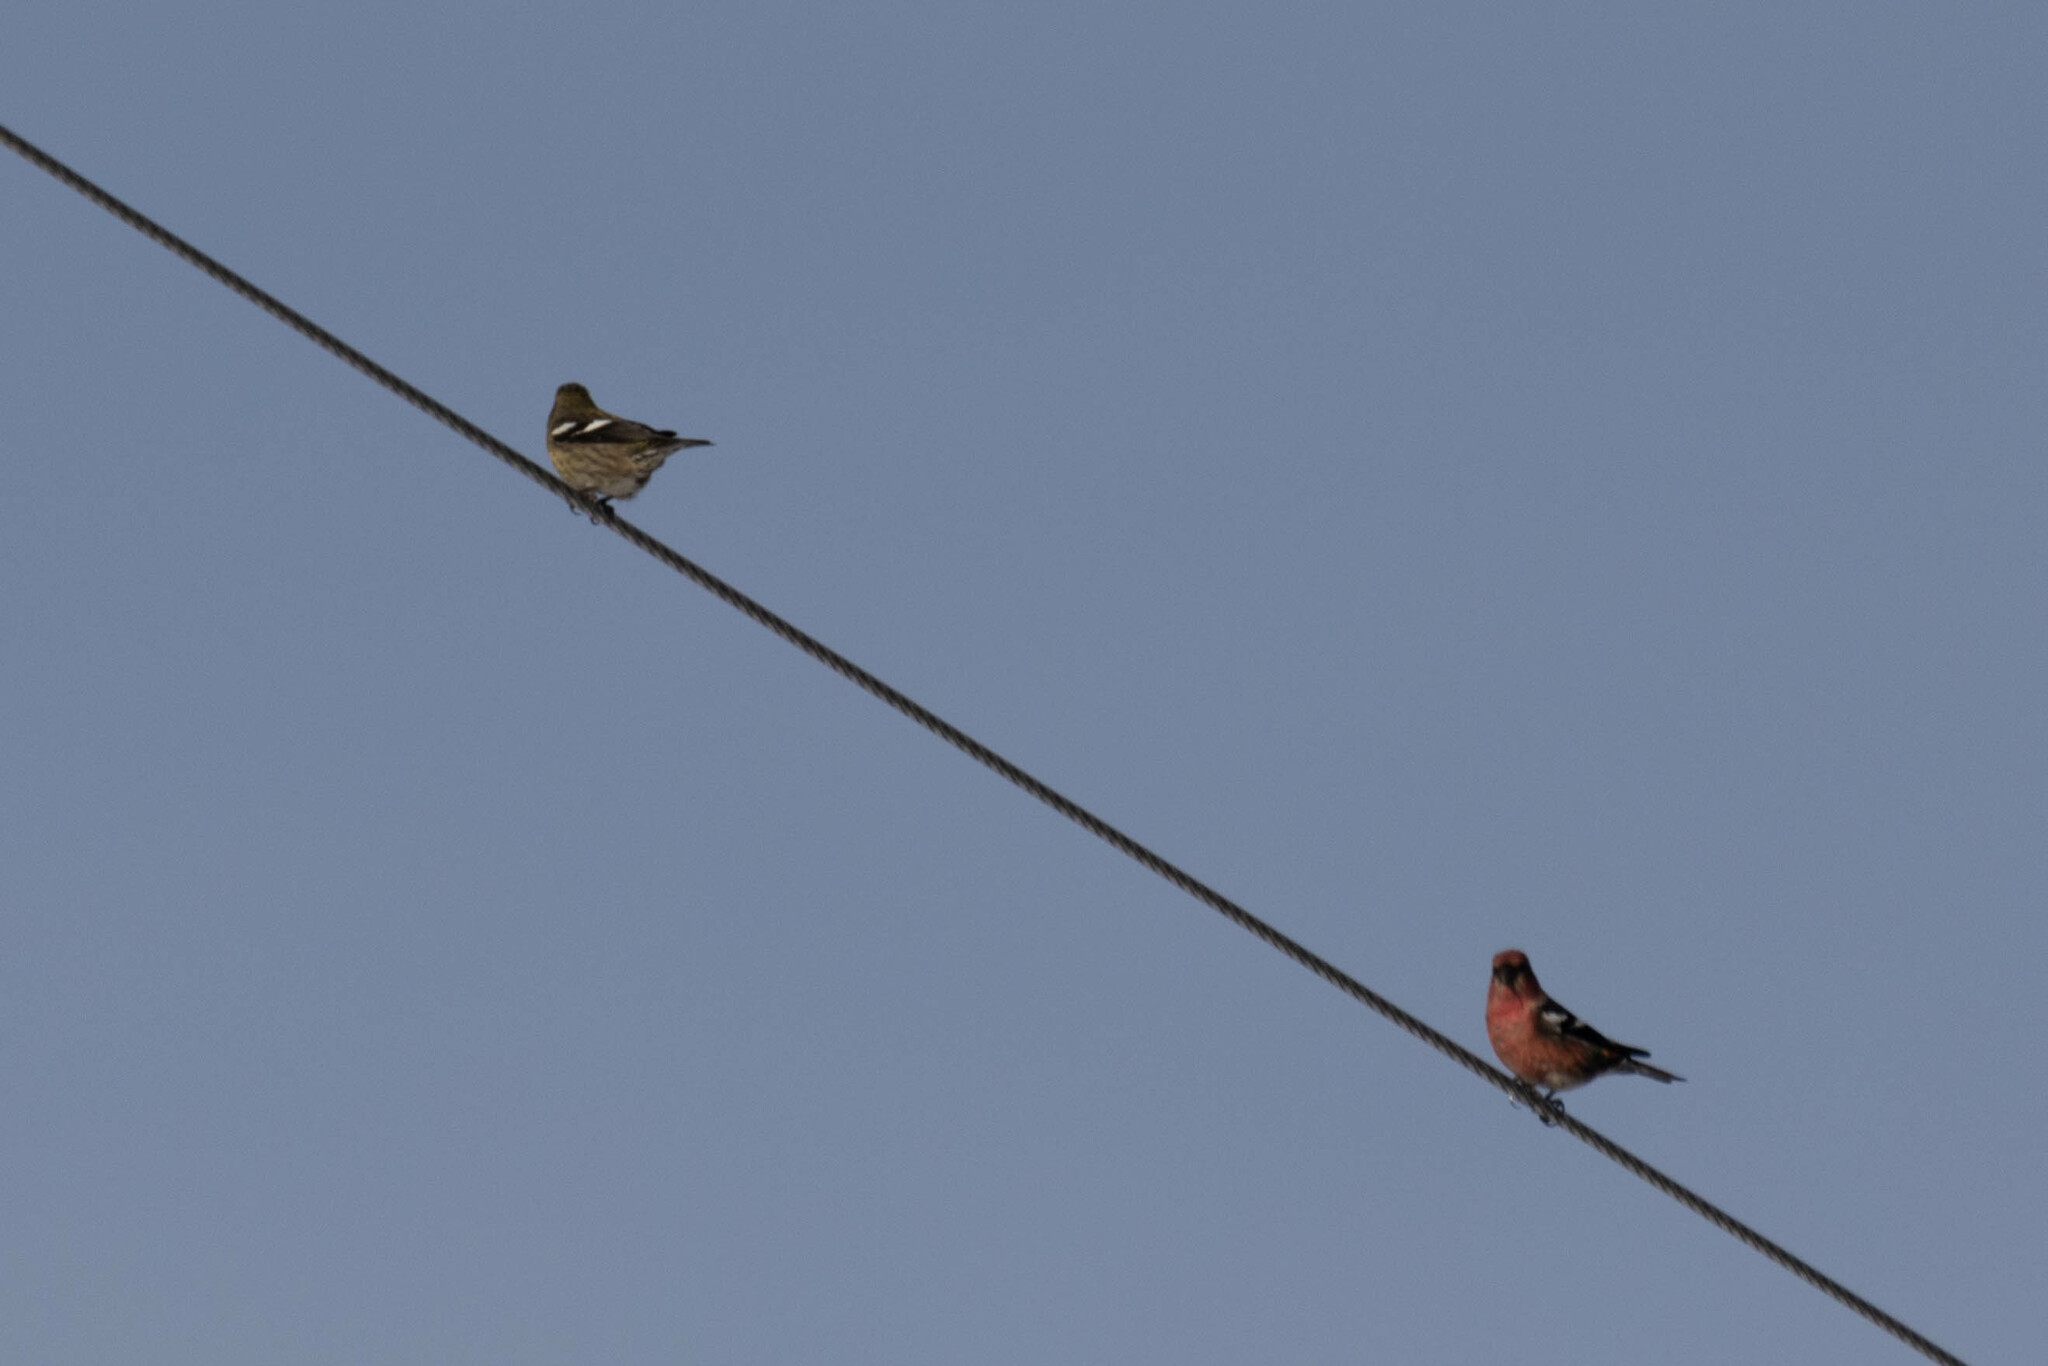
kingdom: Animalia
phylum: Chordata
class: Aves
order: Passeriformes
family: Fringillidae
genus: Loxia
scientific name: Loxia leucoptera
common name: Two-barred crossbill
